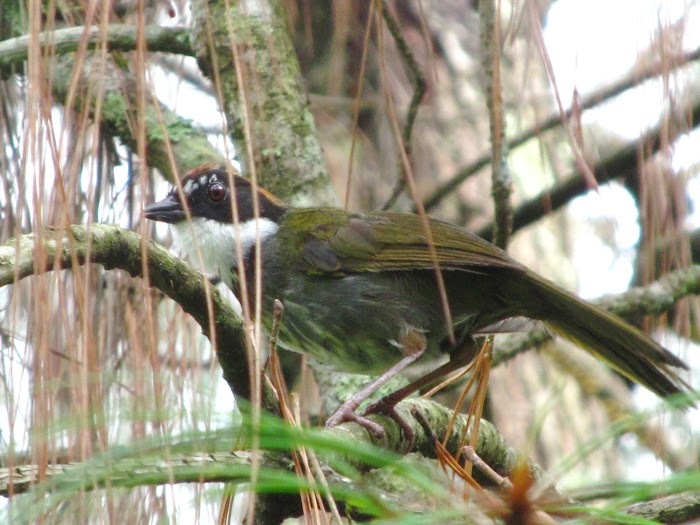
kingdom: Animalia
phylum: Chordata
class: Aves
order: Passeriformes
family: Passerellidae
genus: Arremon
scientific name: Arremon brunneinucha
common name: Chestnut-capped brushfinch
